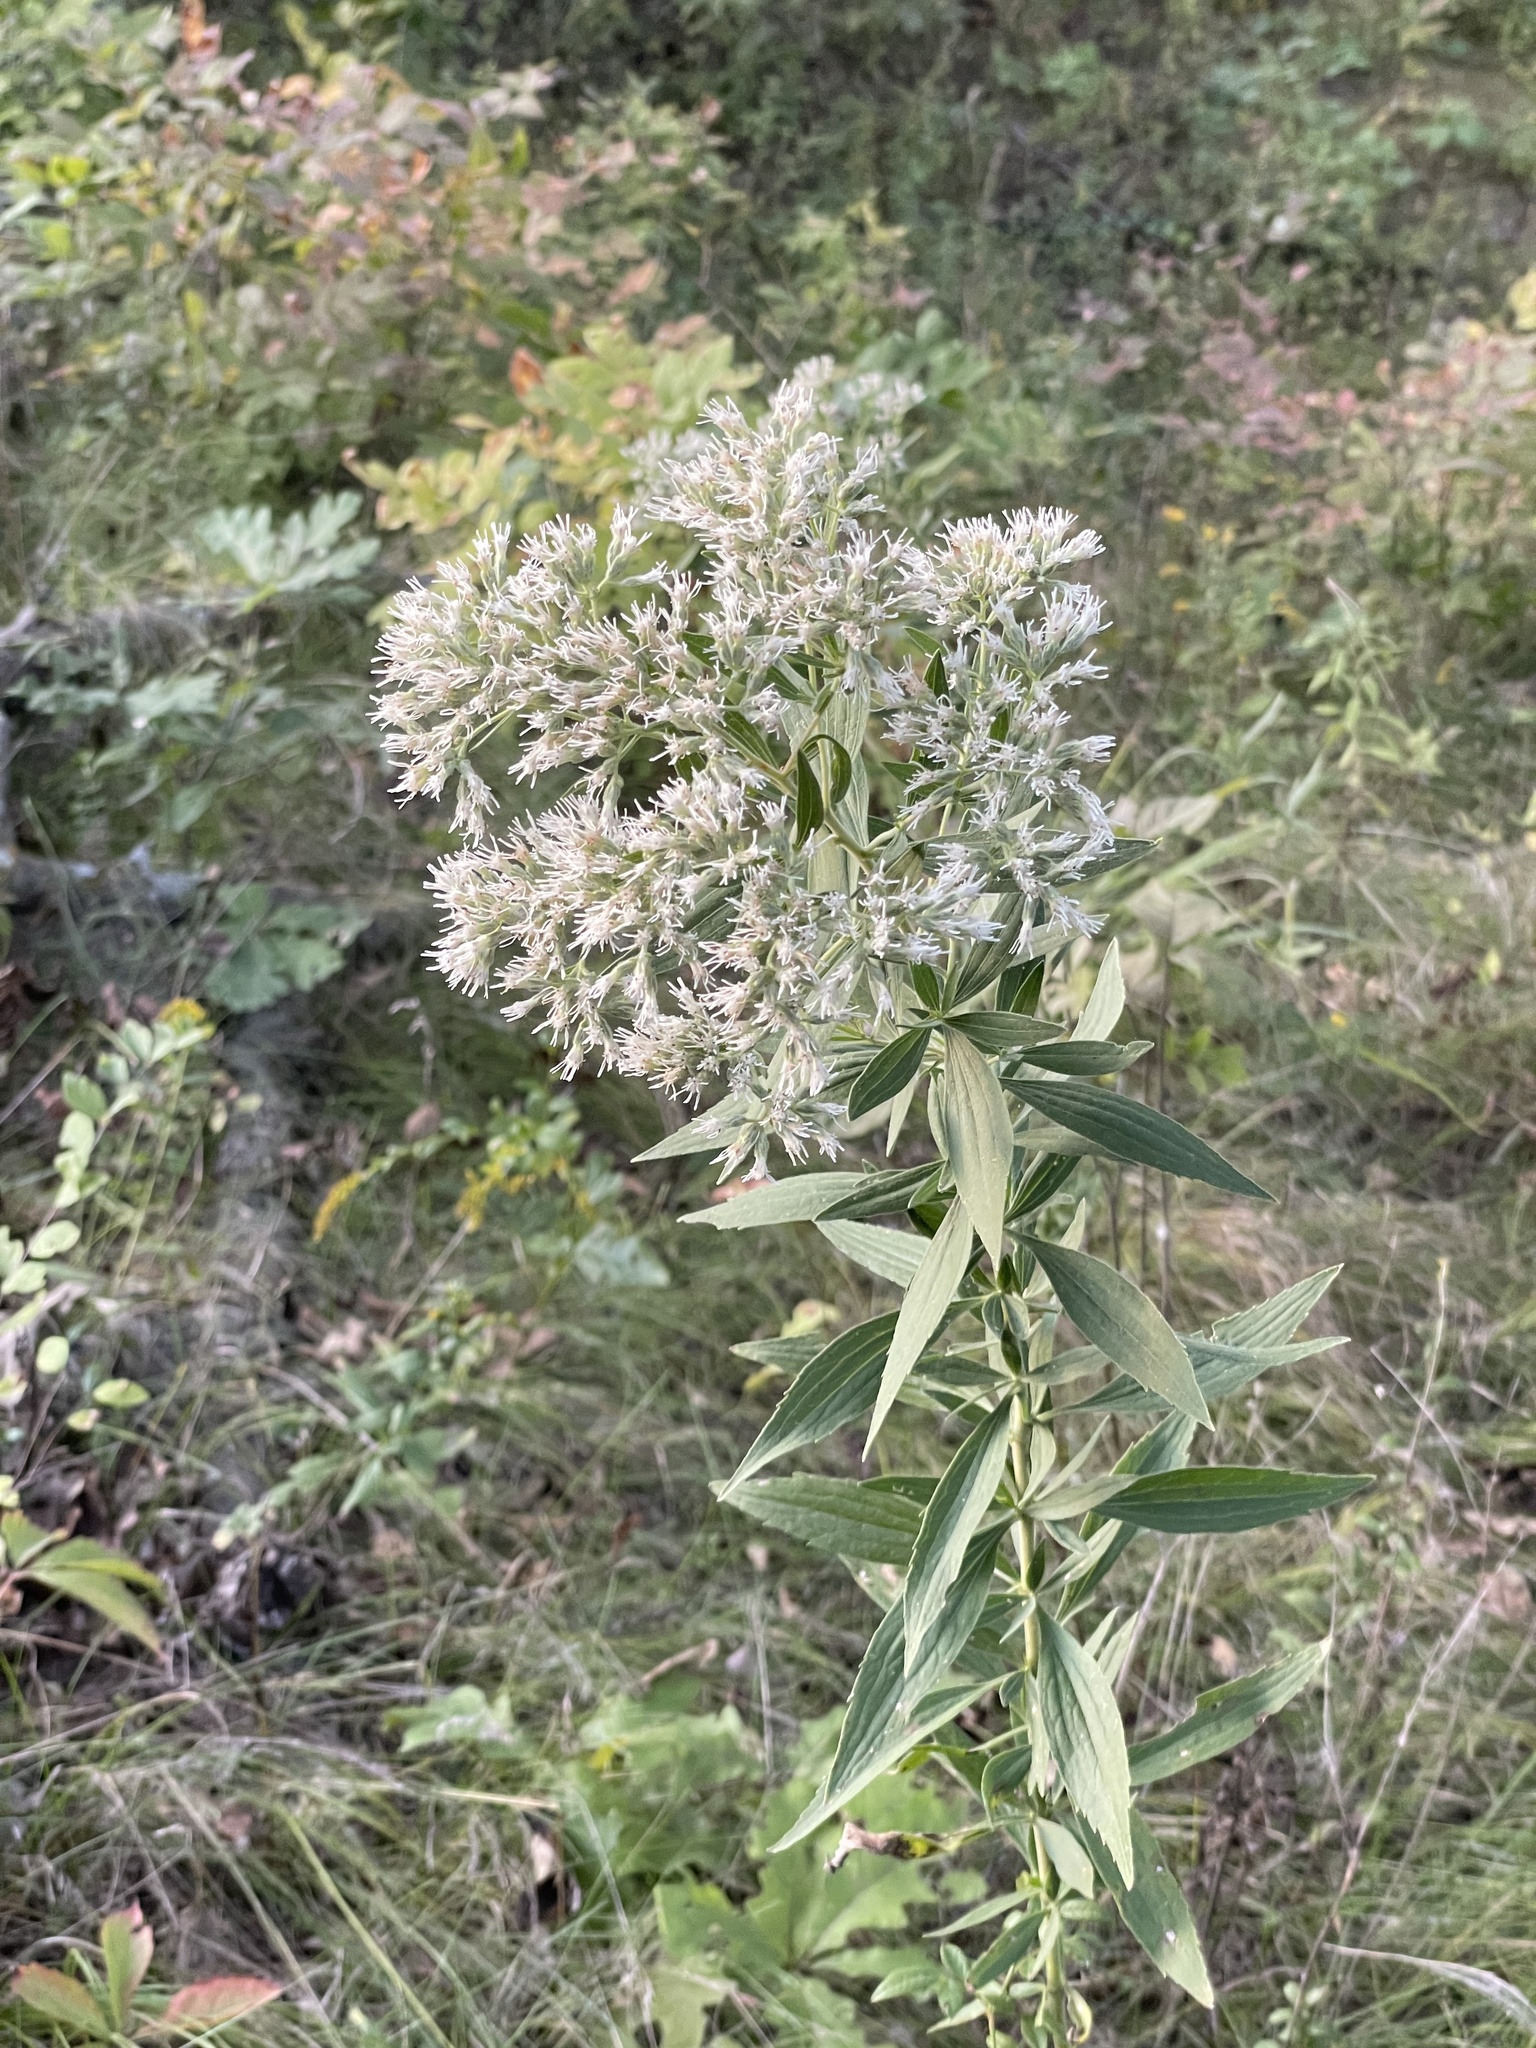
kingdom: Plantae
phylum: Tracheophyta
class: Magnoliopsida
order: Asterales
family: Asteraceae
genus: Eupatorium
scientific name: Eupatorium altissimum
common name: Tall thoroughwort
